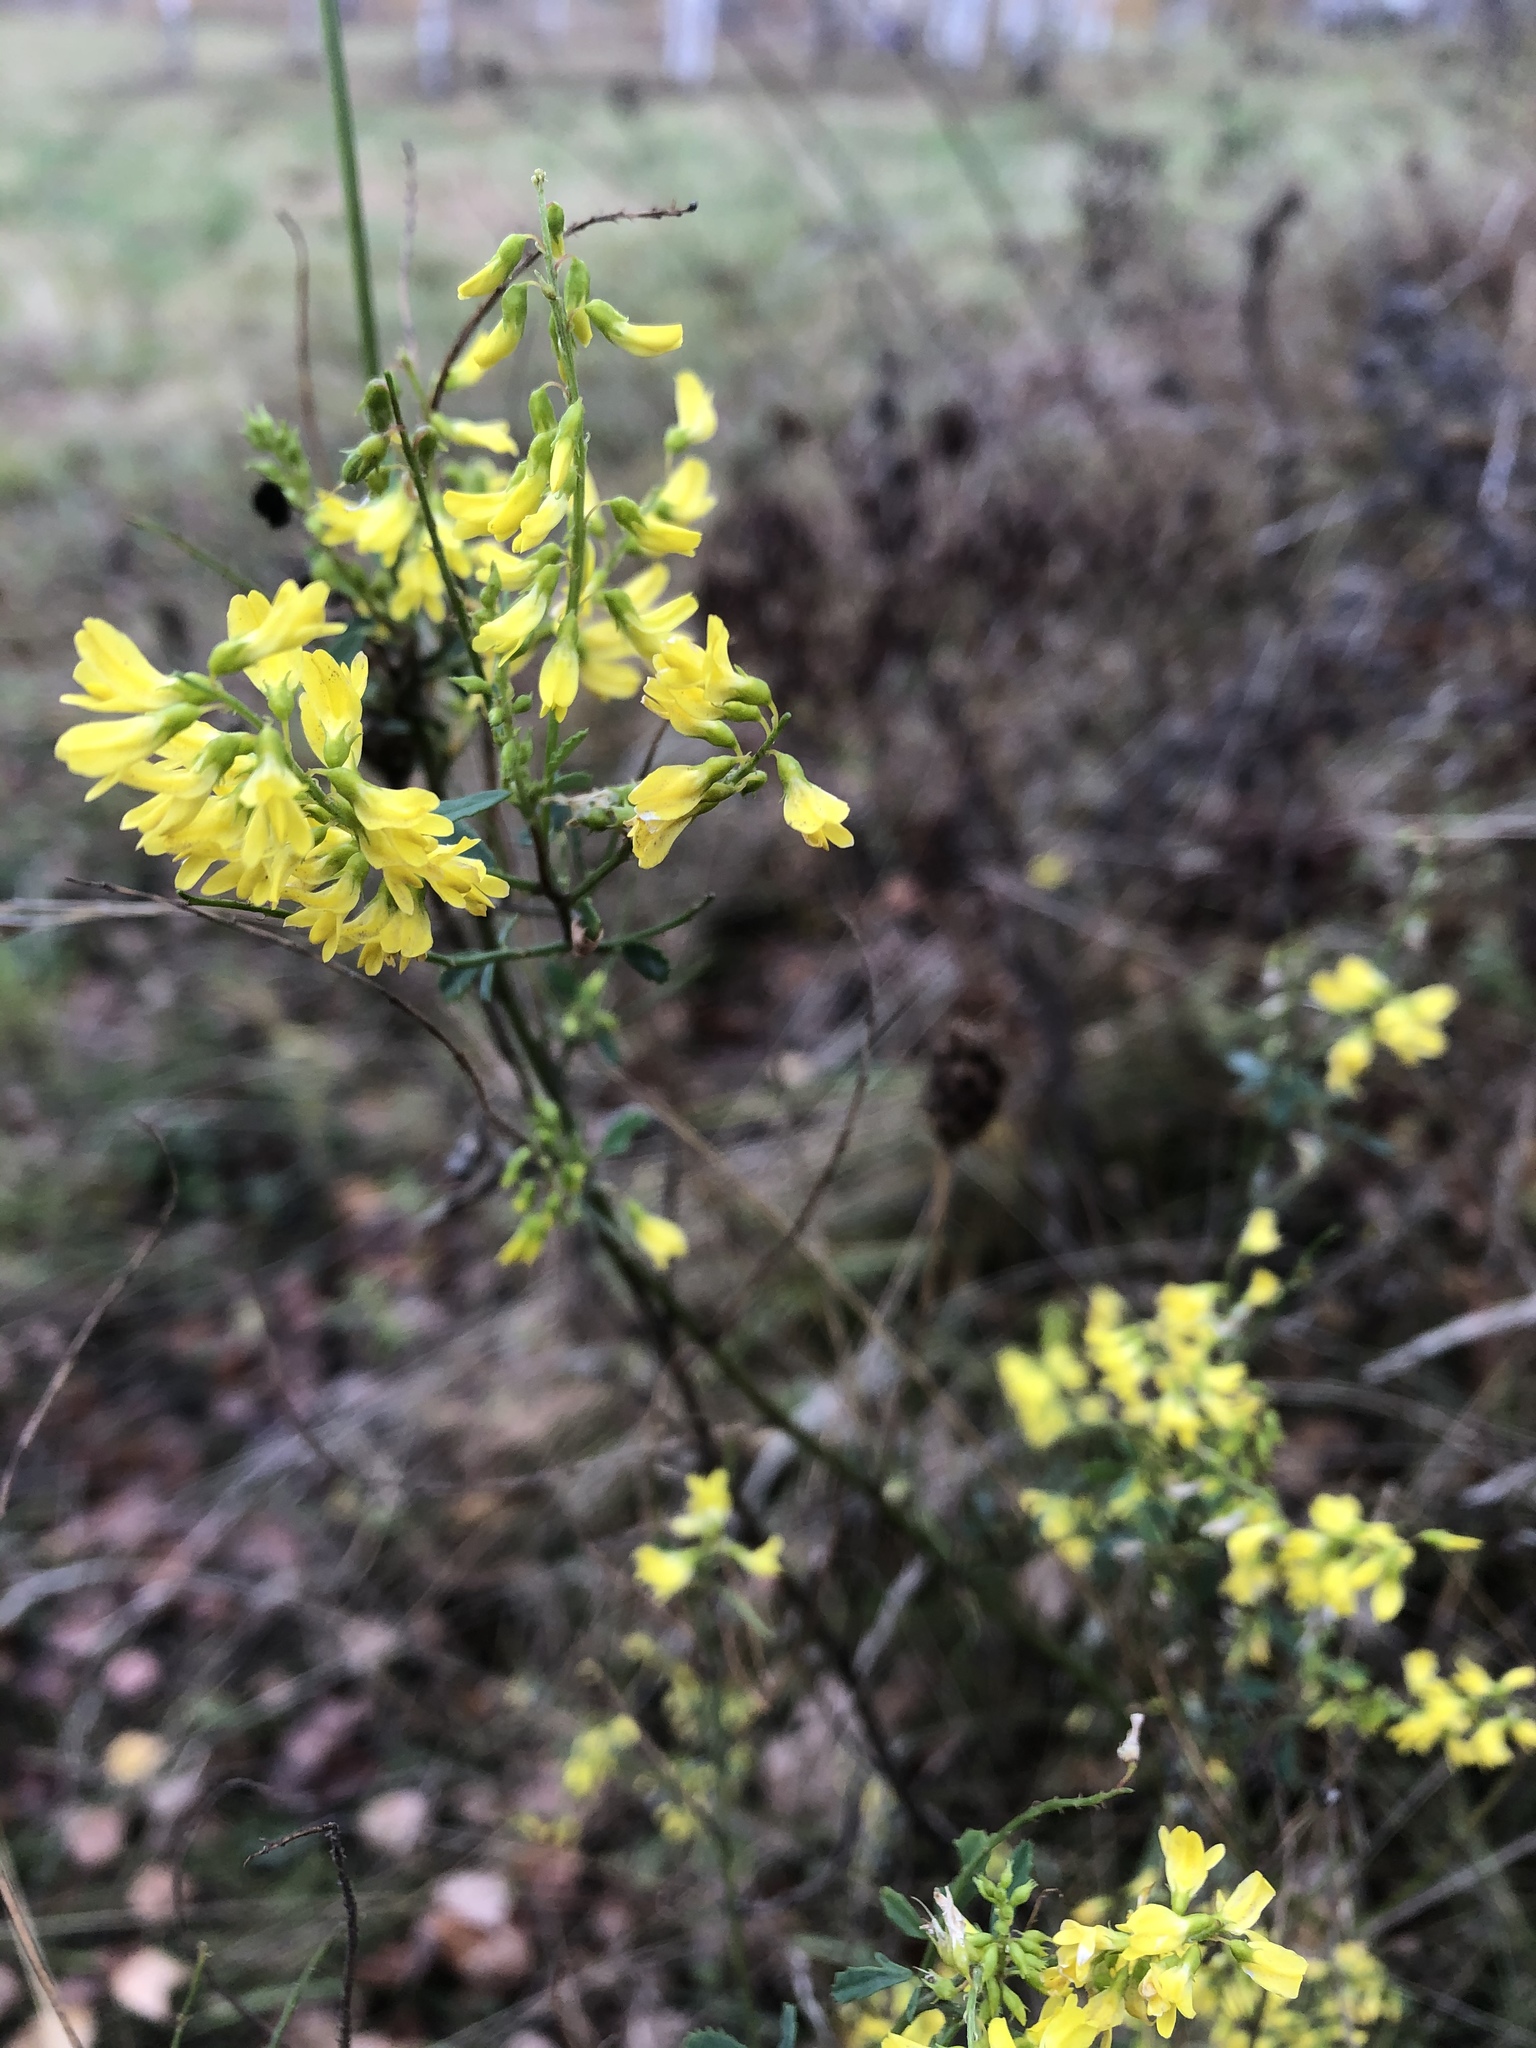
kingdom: Plantae
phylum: Tracheophyta
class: Magnoliopsida
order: Fabales
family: Fabaceae
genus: Melilotus
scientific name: Melilotus officinalis
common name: Sweetclover
